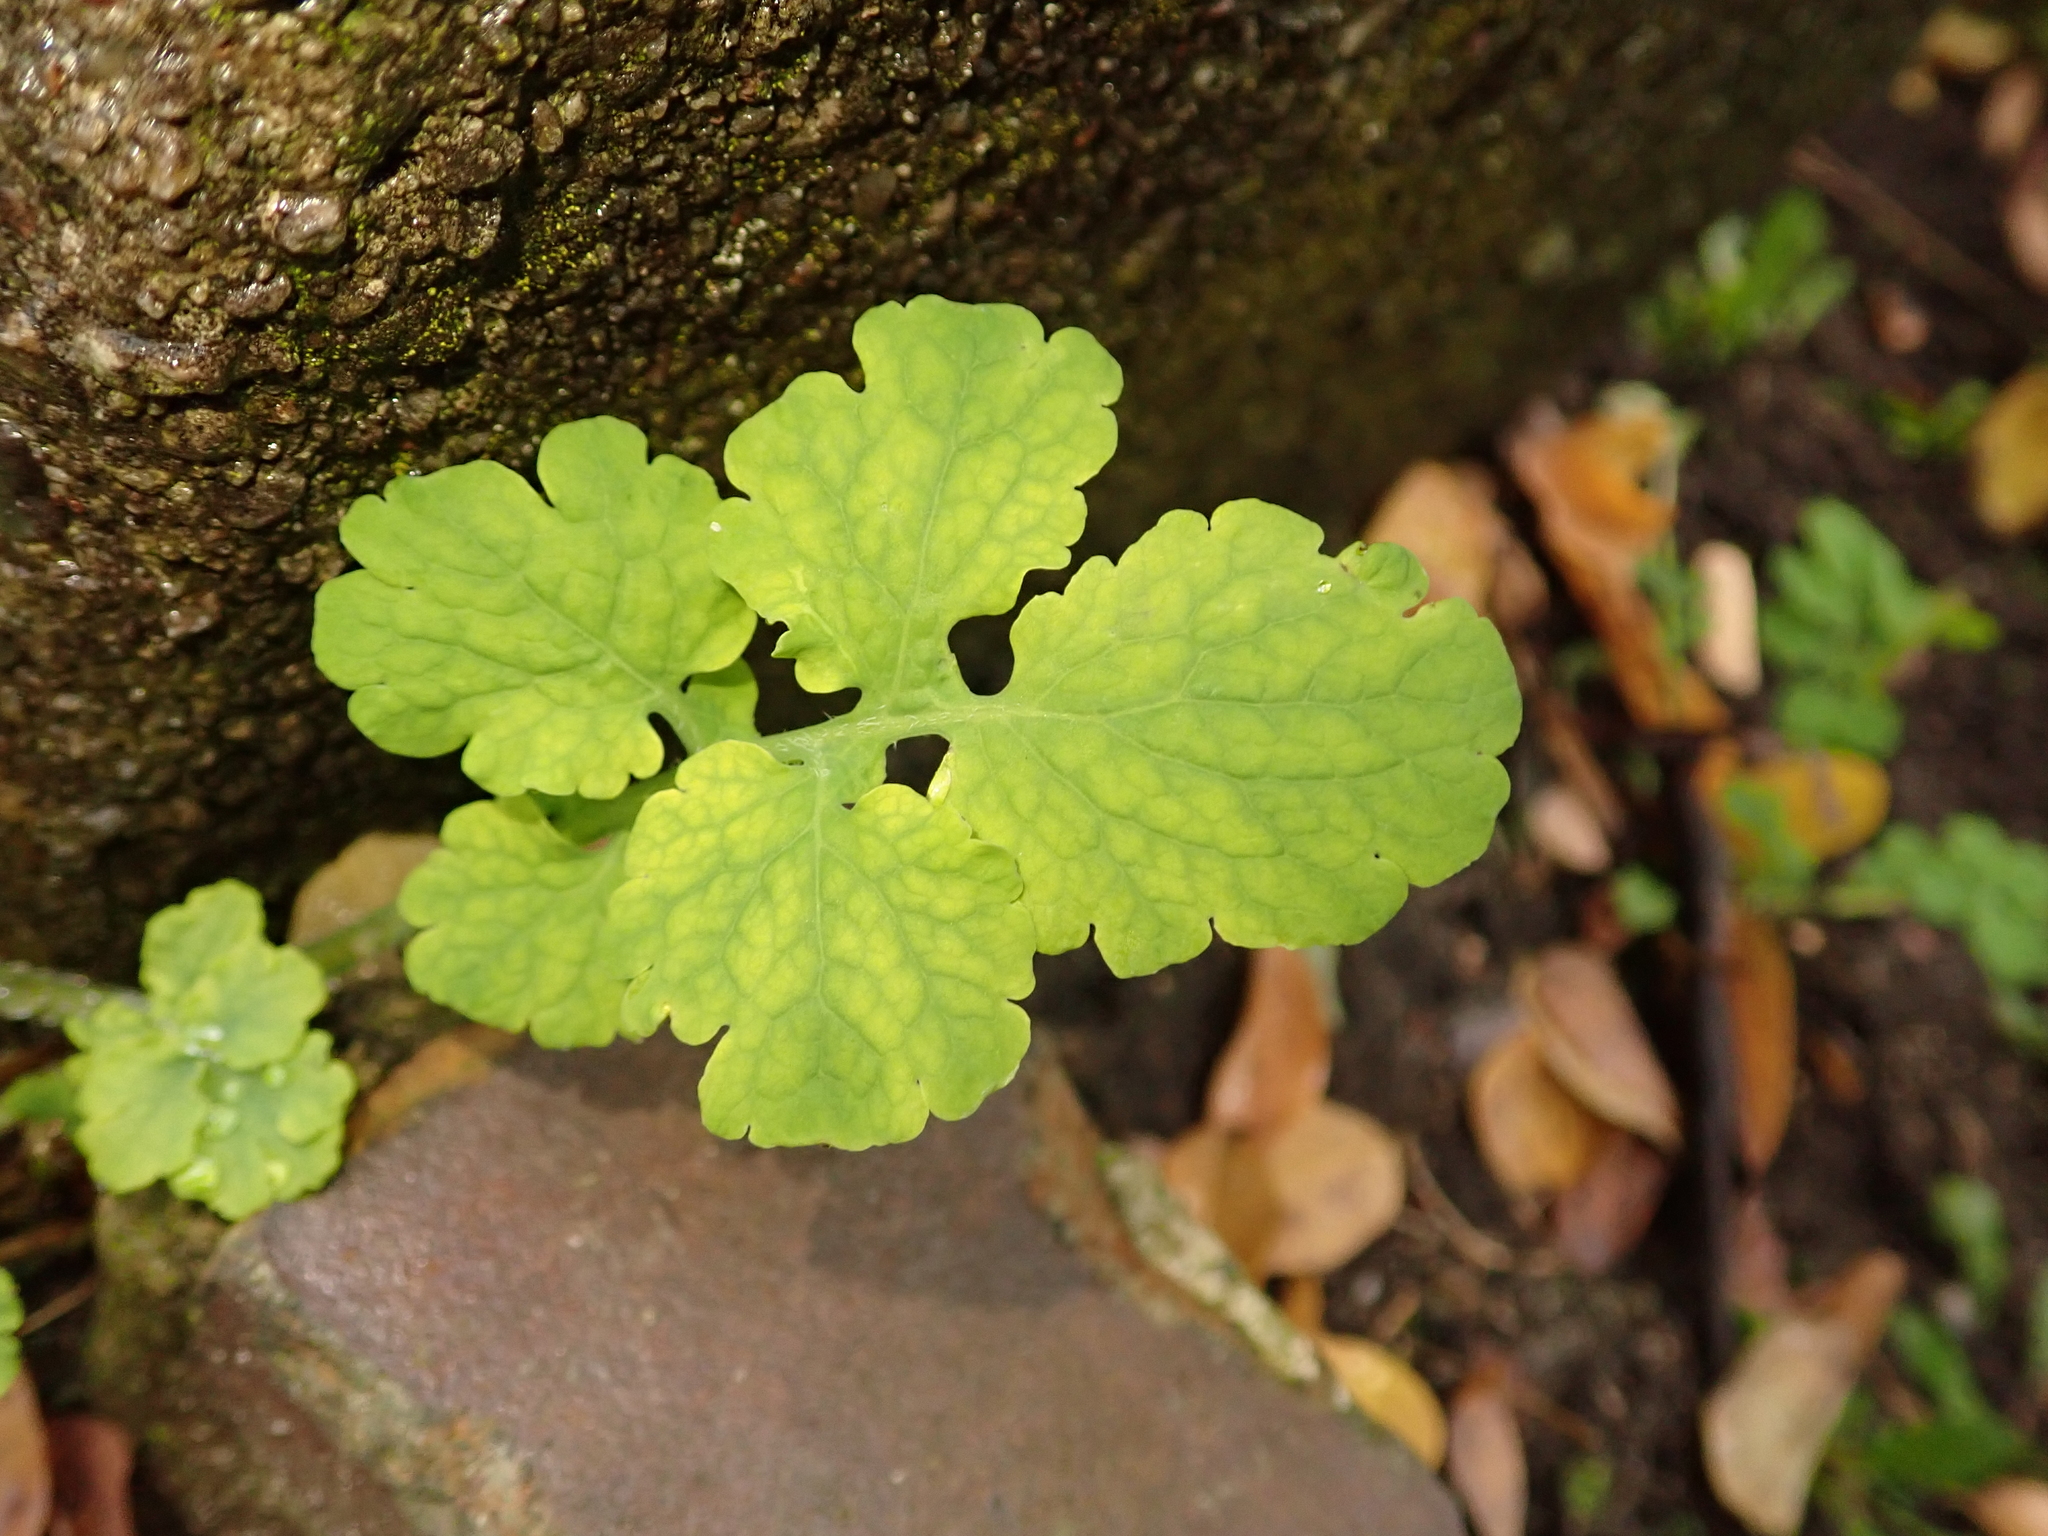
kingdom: Plantae
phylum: Tracheophyta
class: Magnoliopsida
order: Ranunculales
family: Papaveraceae
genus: Chelidonium
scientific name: Chelidonium majus
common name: Greater celandine
